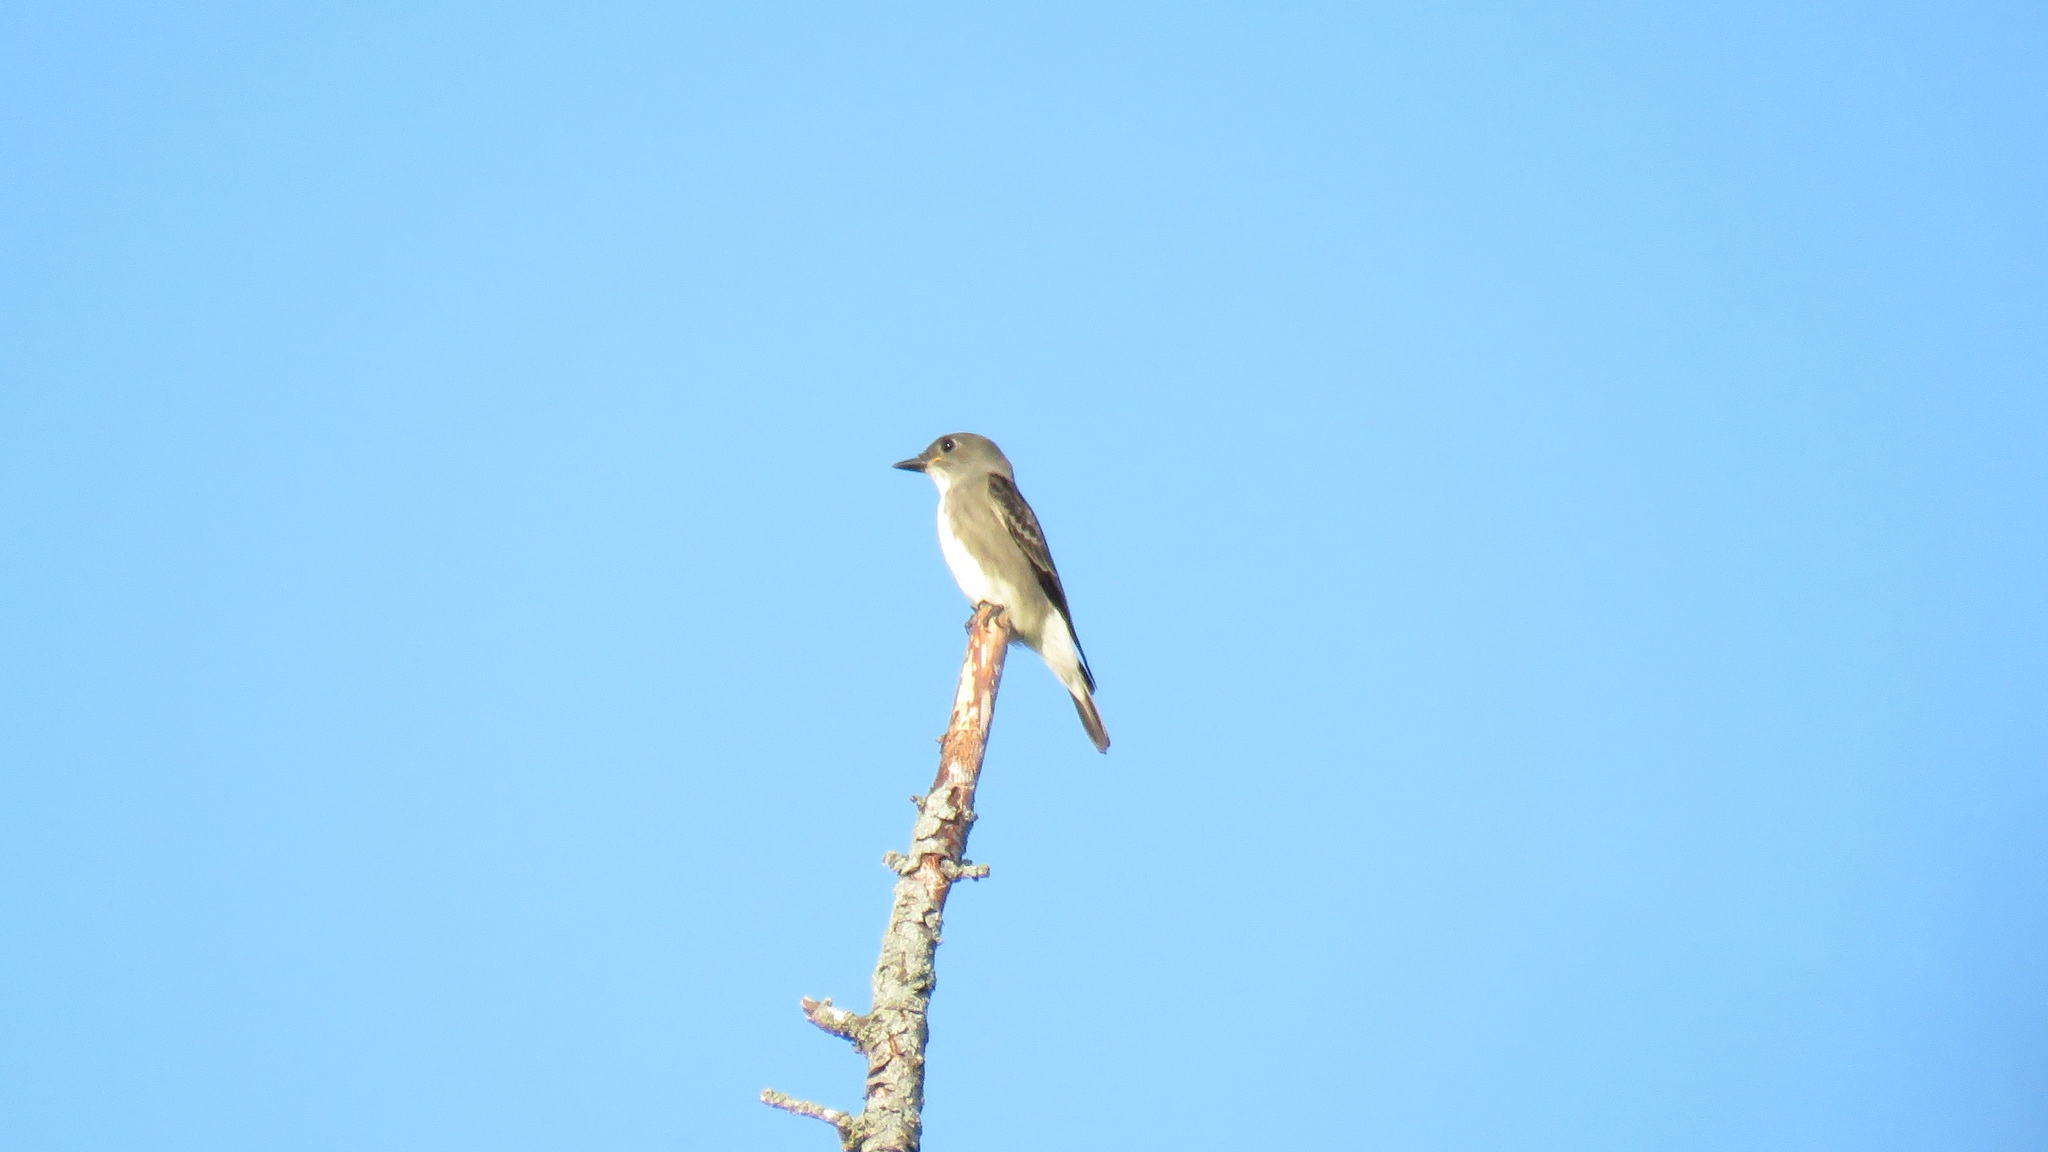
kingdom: Animalia
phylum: Chordata
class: Aves
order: Passeriformes
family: Tyrannidae
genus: Contopus
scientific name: Contopus cooperi
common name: Olive-sided flycatcher
